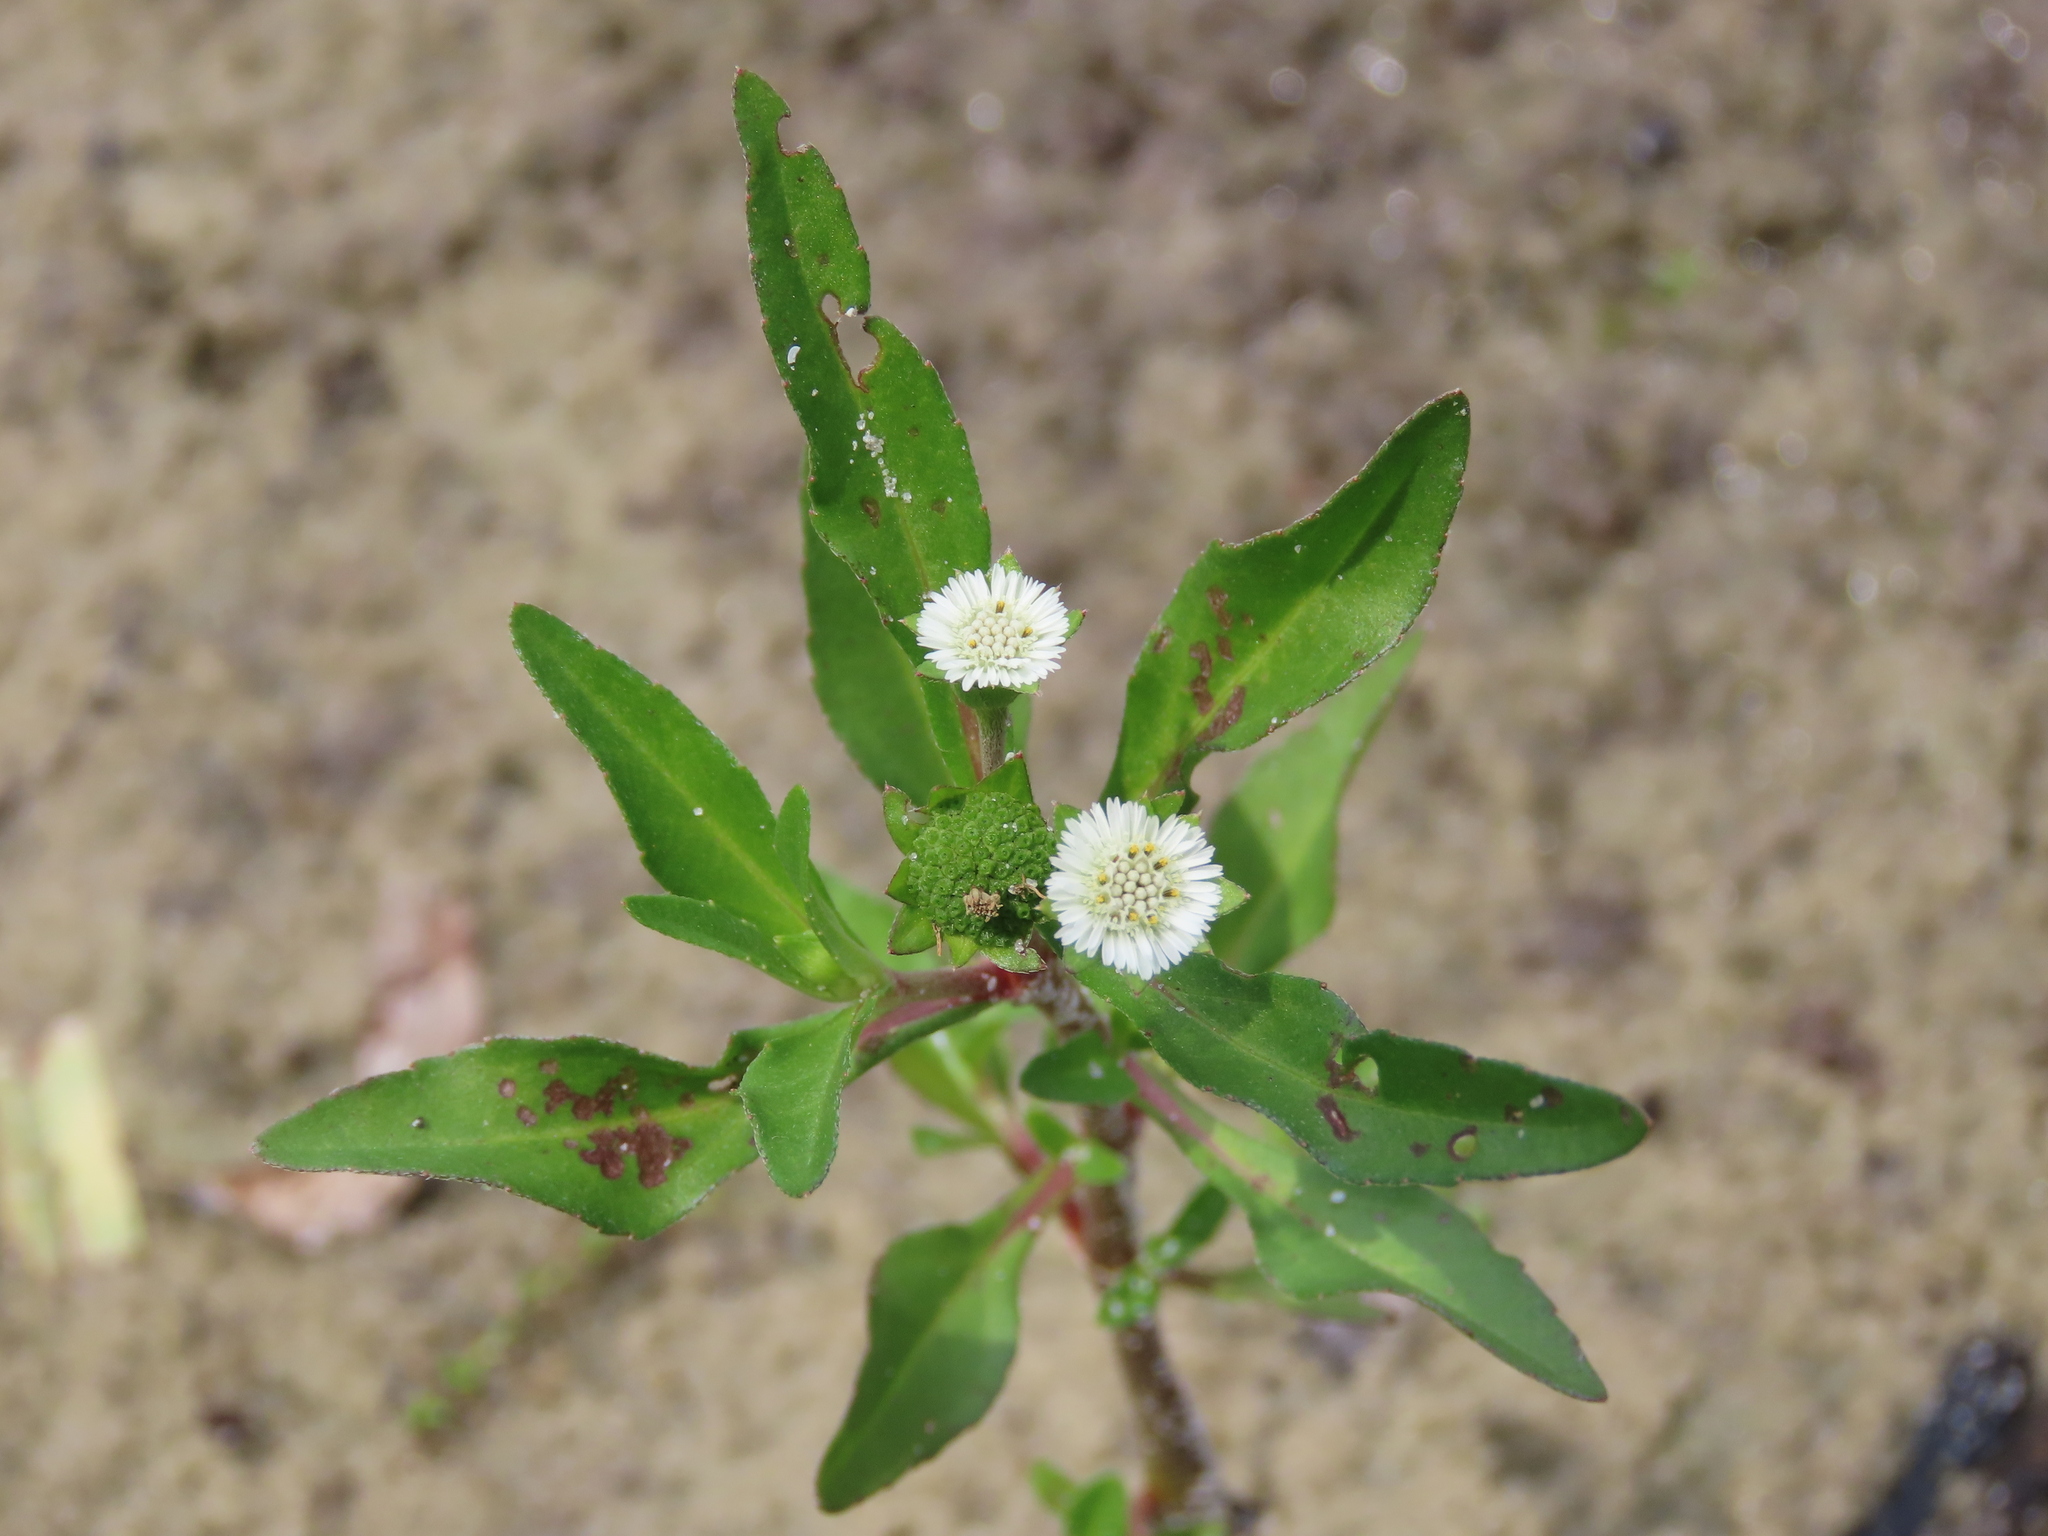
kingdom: Plantae
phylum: Tracheophyta
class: Magnoliopsida
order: Asterales
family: Asteraceae
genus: Eclipta
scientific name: Eclipta prostrata
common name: False daisy
